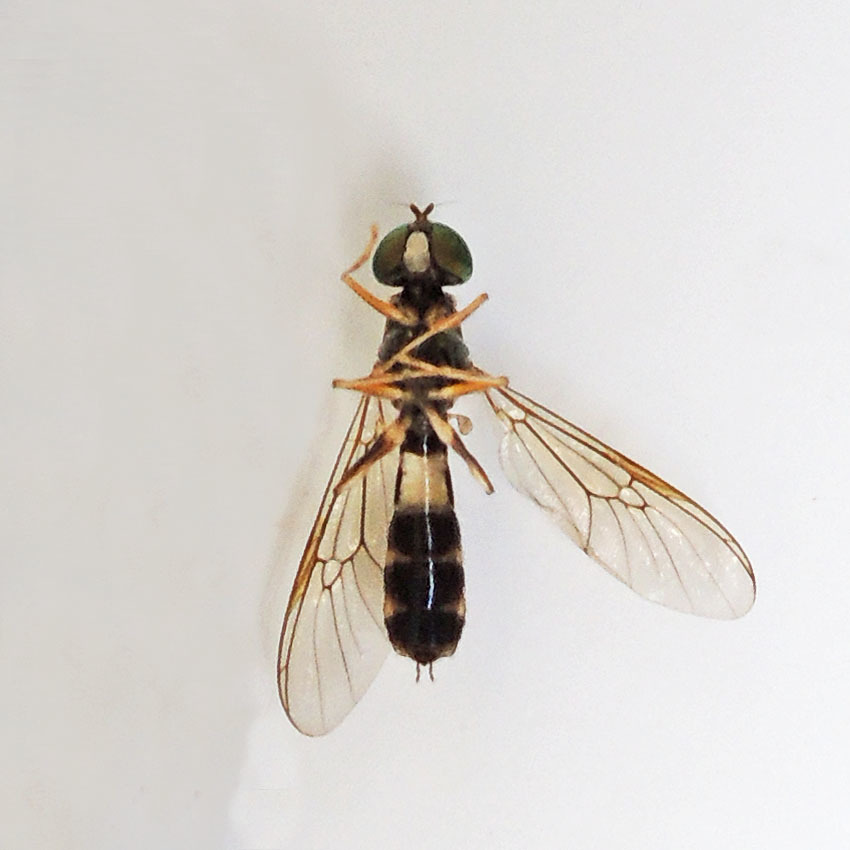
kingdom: Animalia
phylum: Arthropoda
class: Insecta
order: Diptera
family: Stratiomyidae
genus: Sargus
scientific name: Sargus fasciatus
